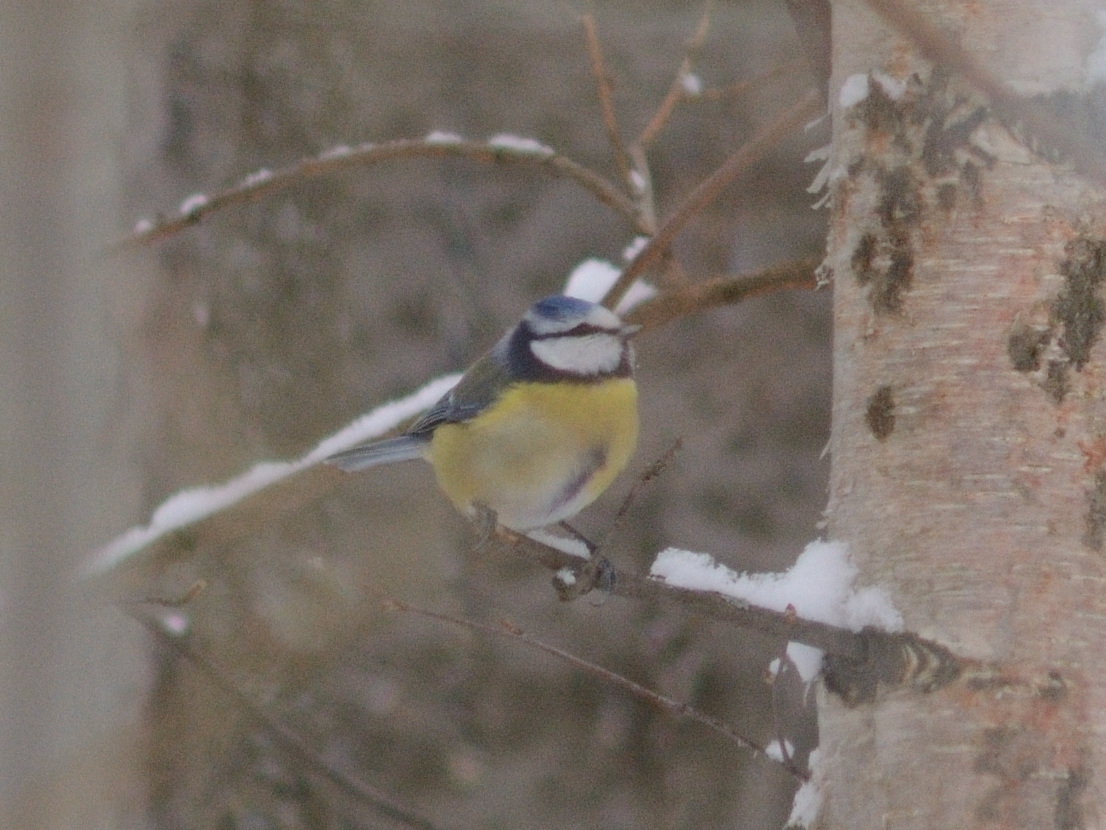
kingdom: Animalia
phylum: Chordata
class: Aves
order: Passeriformes
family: Paridae
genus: Cyanistes
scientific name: Cyanistes caeruleus
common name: Eurasian blue tit
